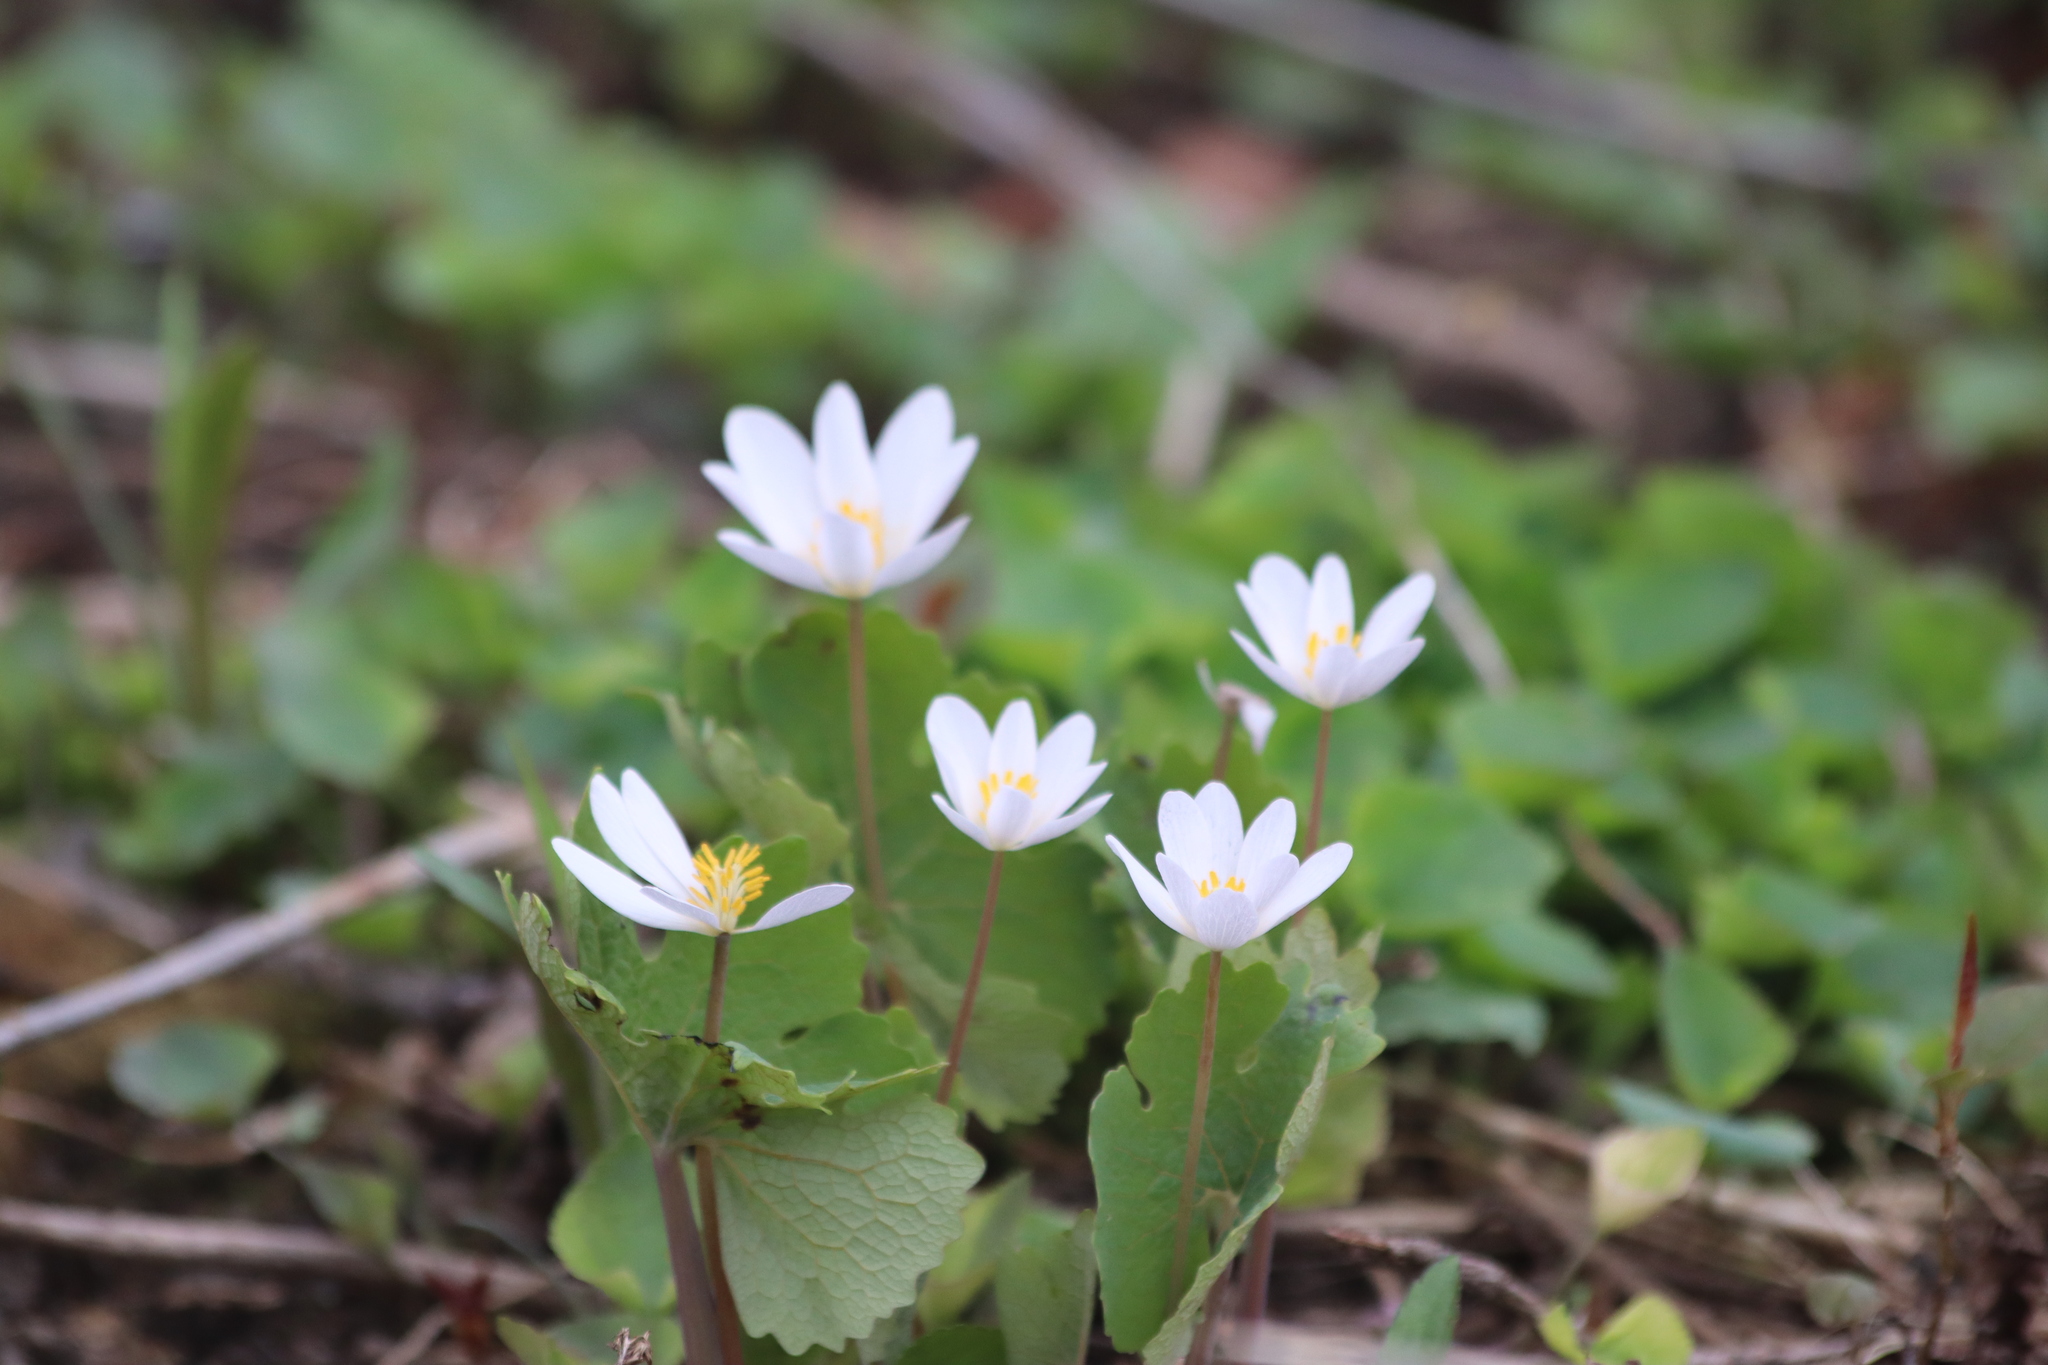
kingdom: Plantae
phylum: Tracheophyta
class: Magnoliopsida
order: Ranunculales
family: Papaveraceae
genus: Sanguinaria
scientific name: Sanguinaria canadensis
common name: Bloodroot
